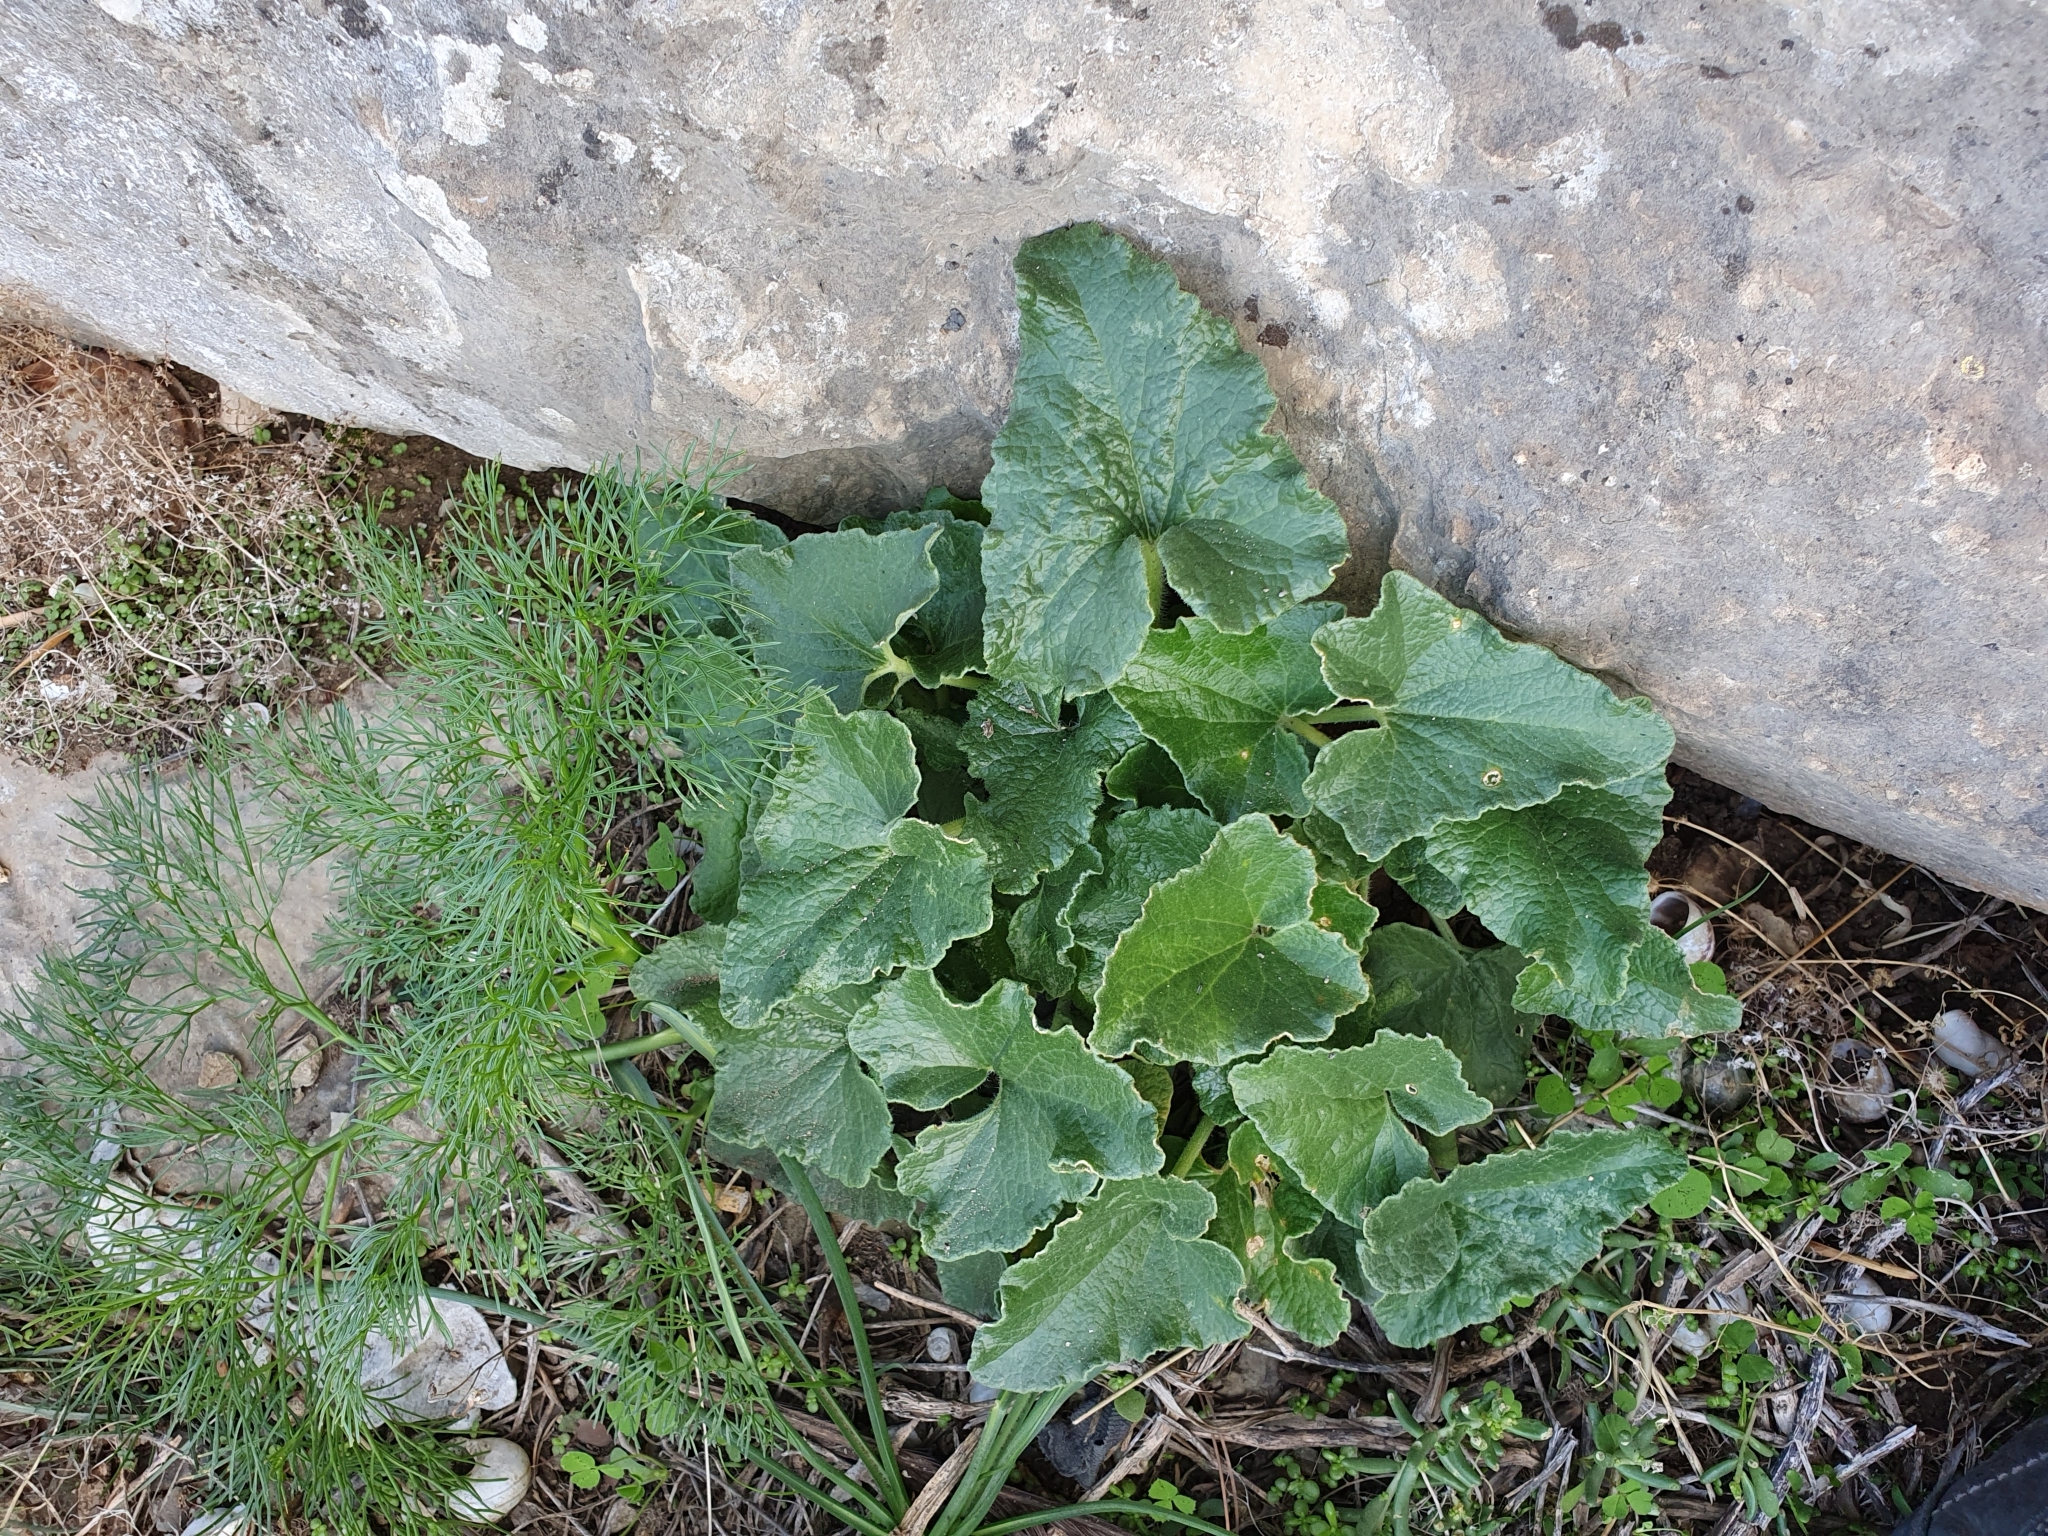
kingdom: Plantae
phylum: Tracheophyta
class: Magnoliopsida
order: Cucurbitales
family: Cucurbitaceae
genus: Ecballium
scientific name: Ecballium elaterium
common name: Squirting cucumber
